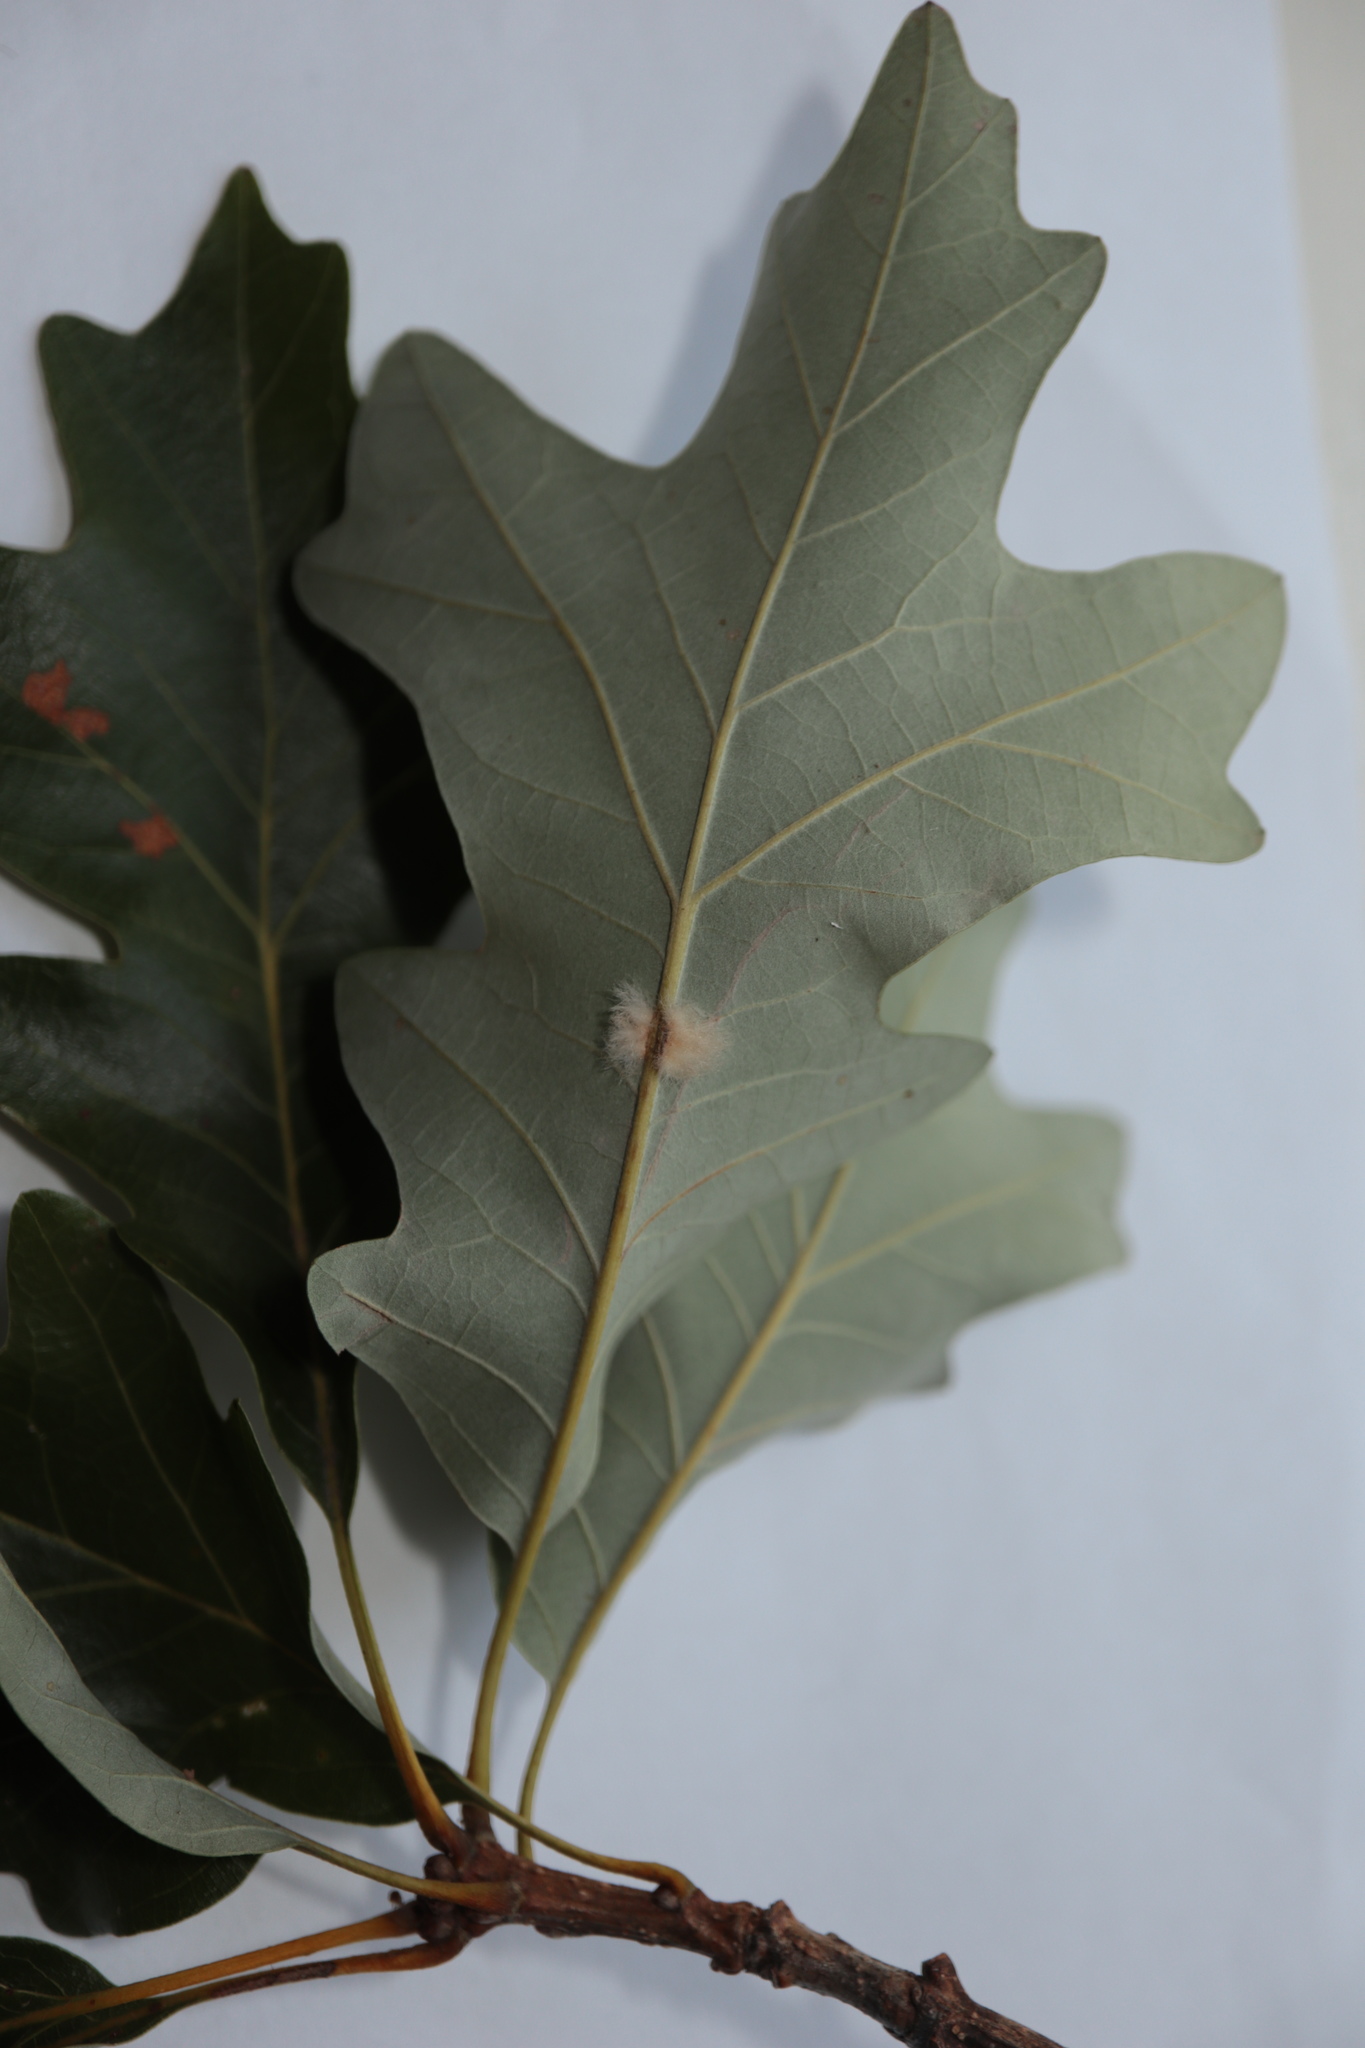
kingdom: Animalia
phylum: Arthropoda
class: Insecta
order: Hymenoptera
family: Cynipidae
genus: Andricus
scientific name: Andricus Druon ignotum
